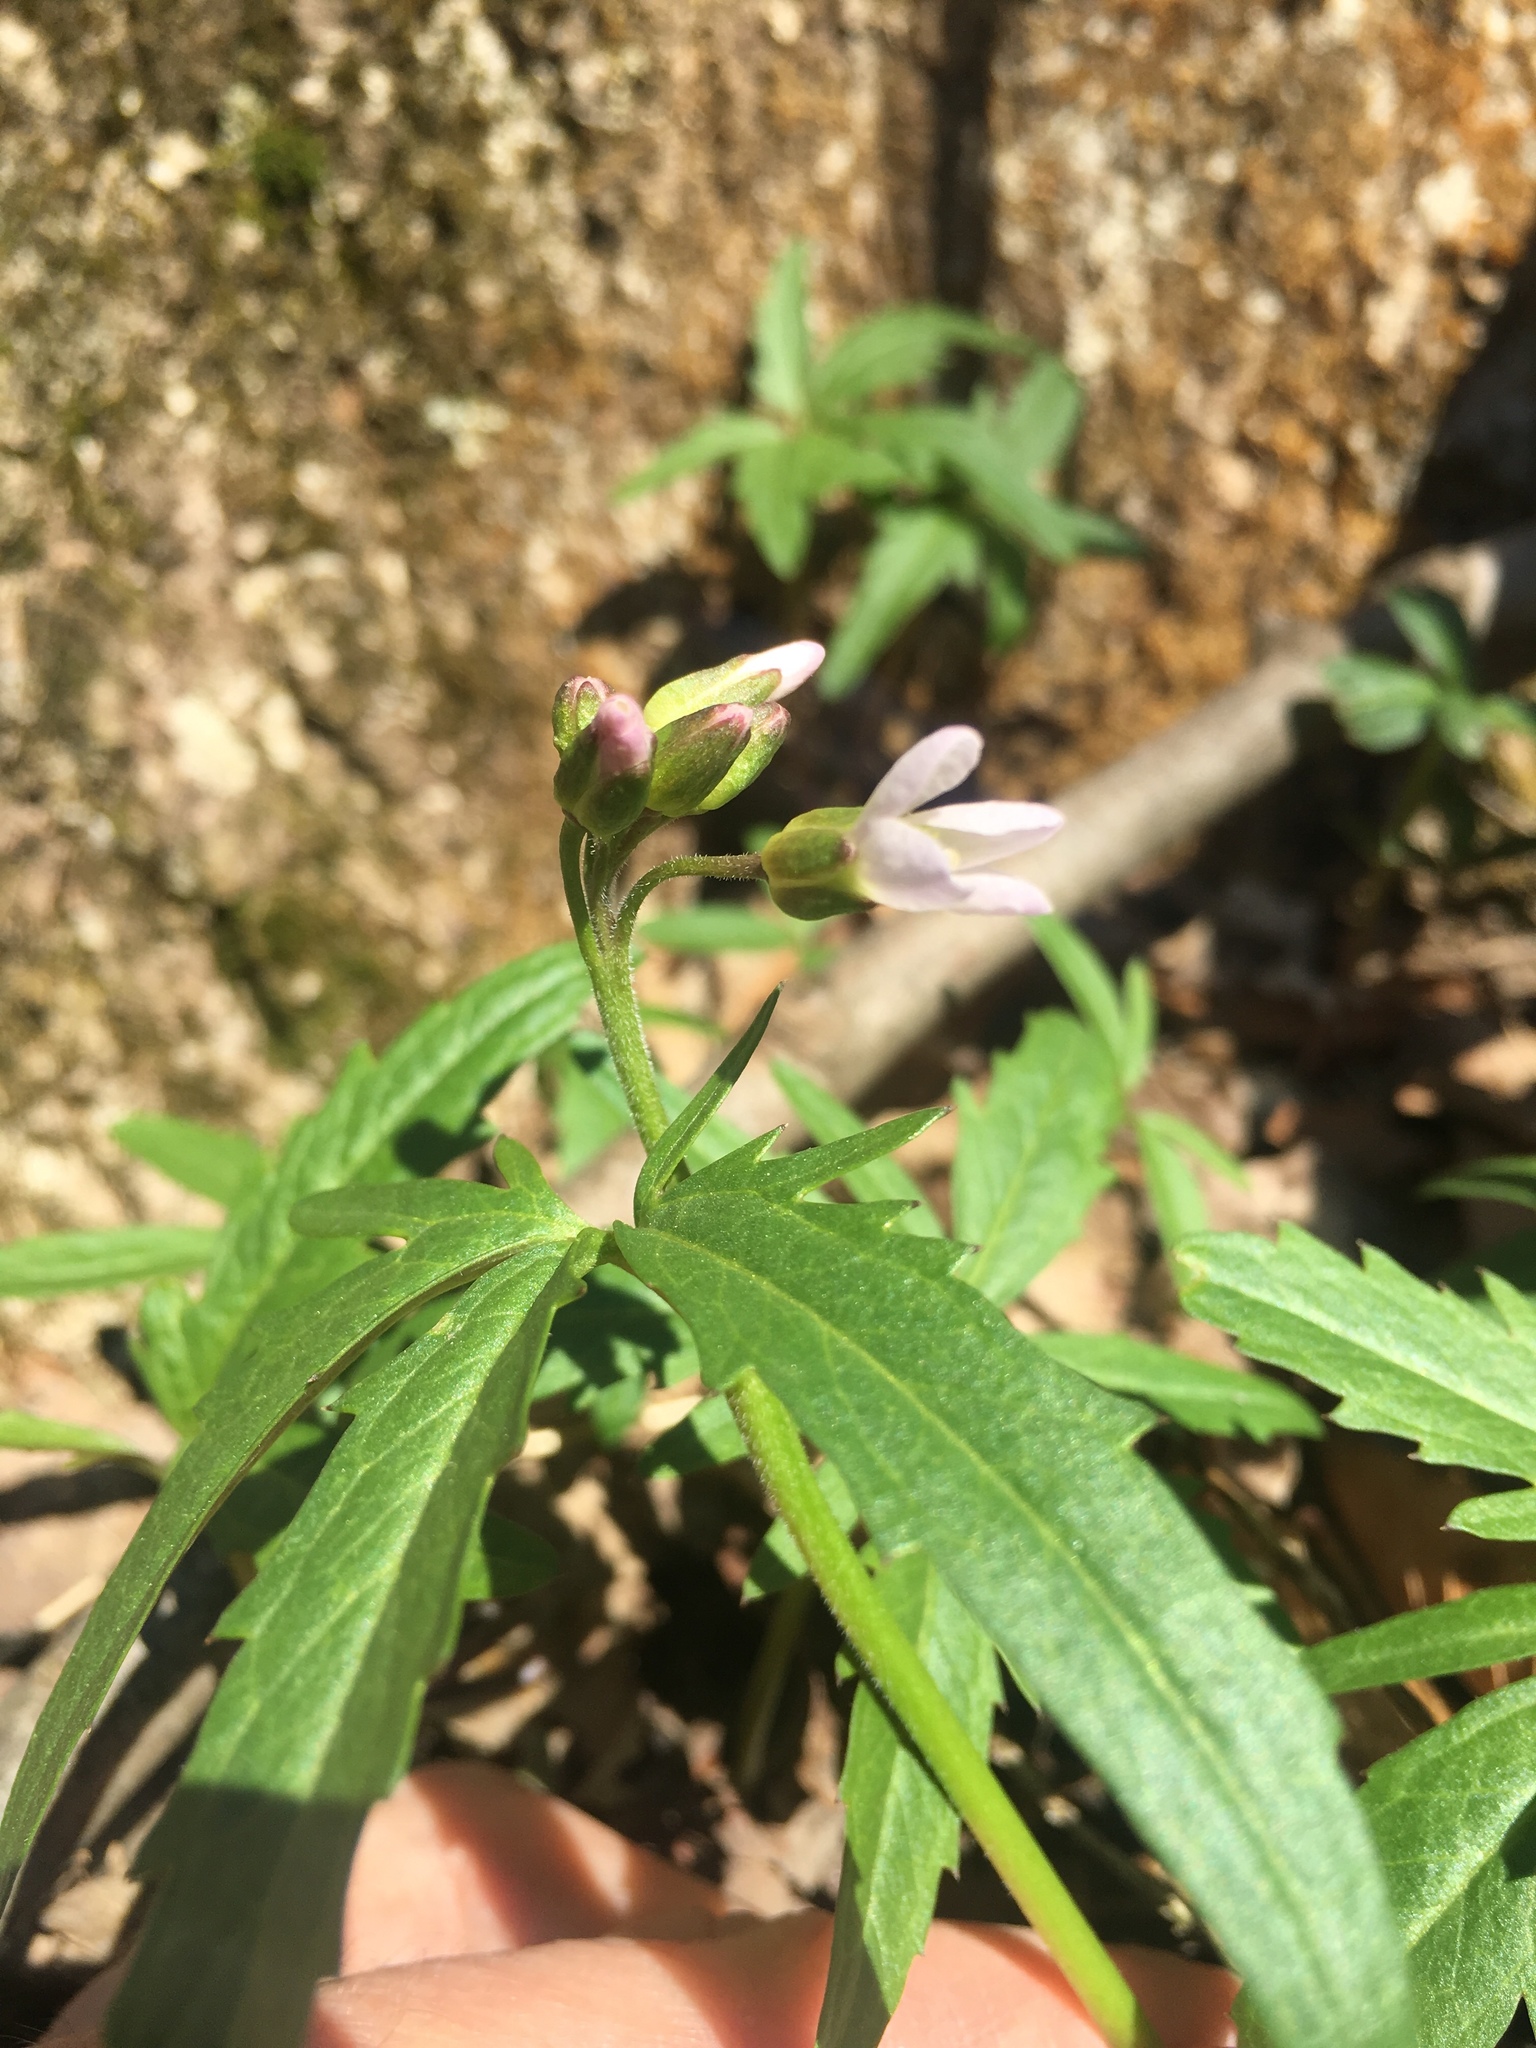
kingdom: Plantae
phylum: Tracheophyta
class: Magnoliopsida
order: Brassicales
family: Brassicaceae
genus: Cardamine
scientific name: Cardamine concatenata
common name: Cut-leaf toothcup
